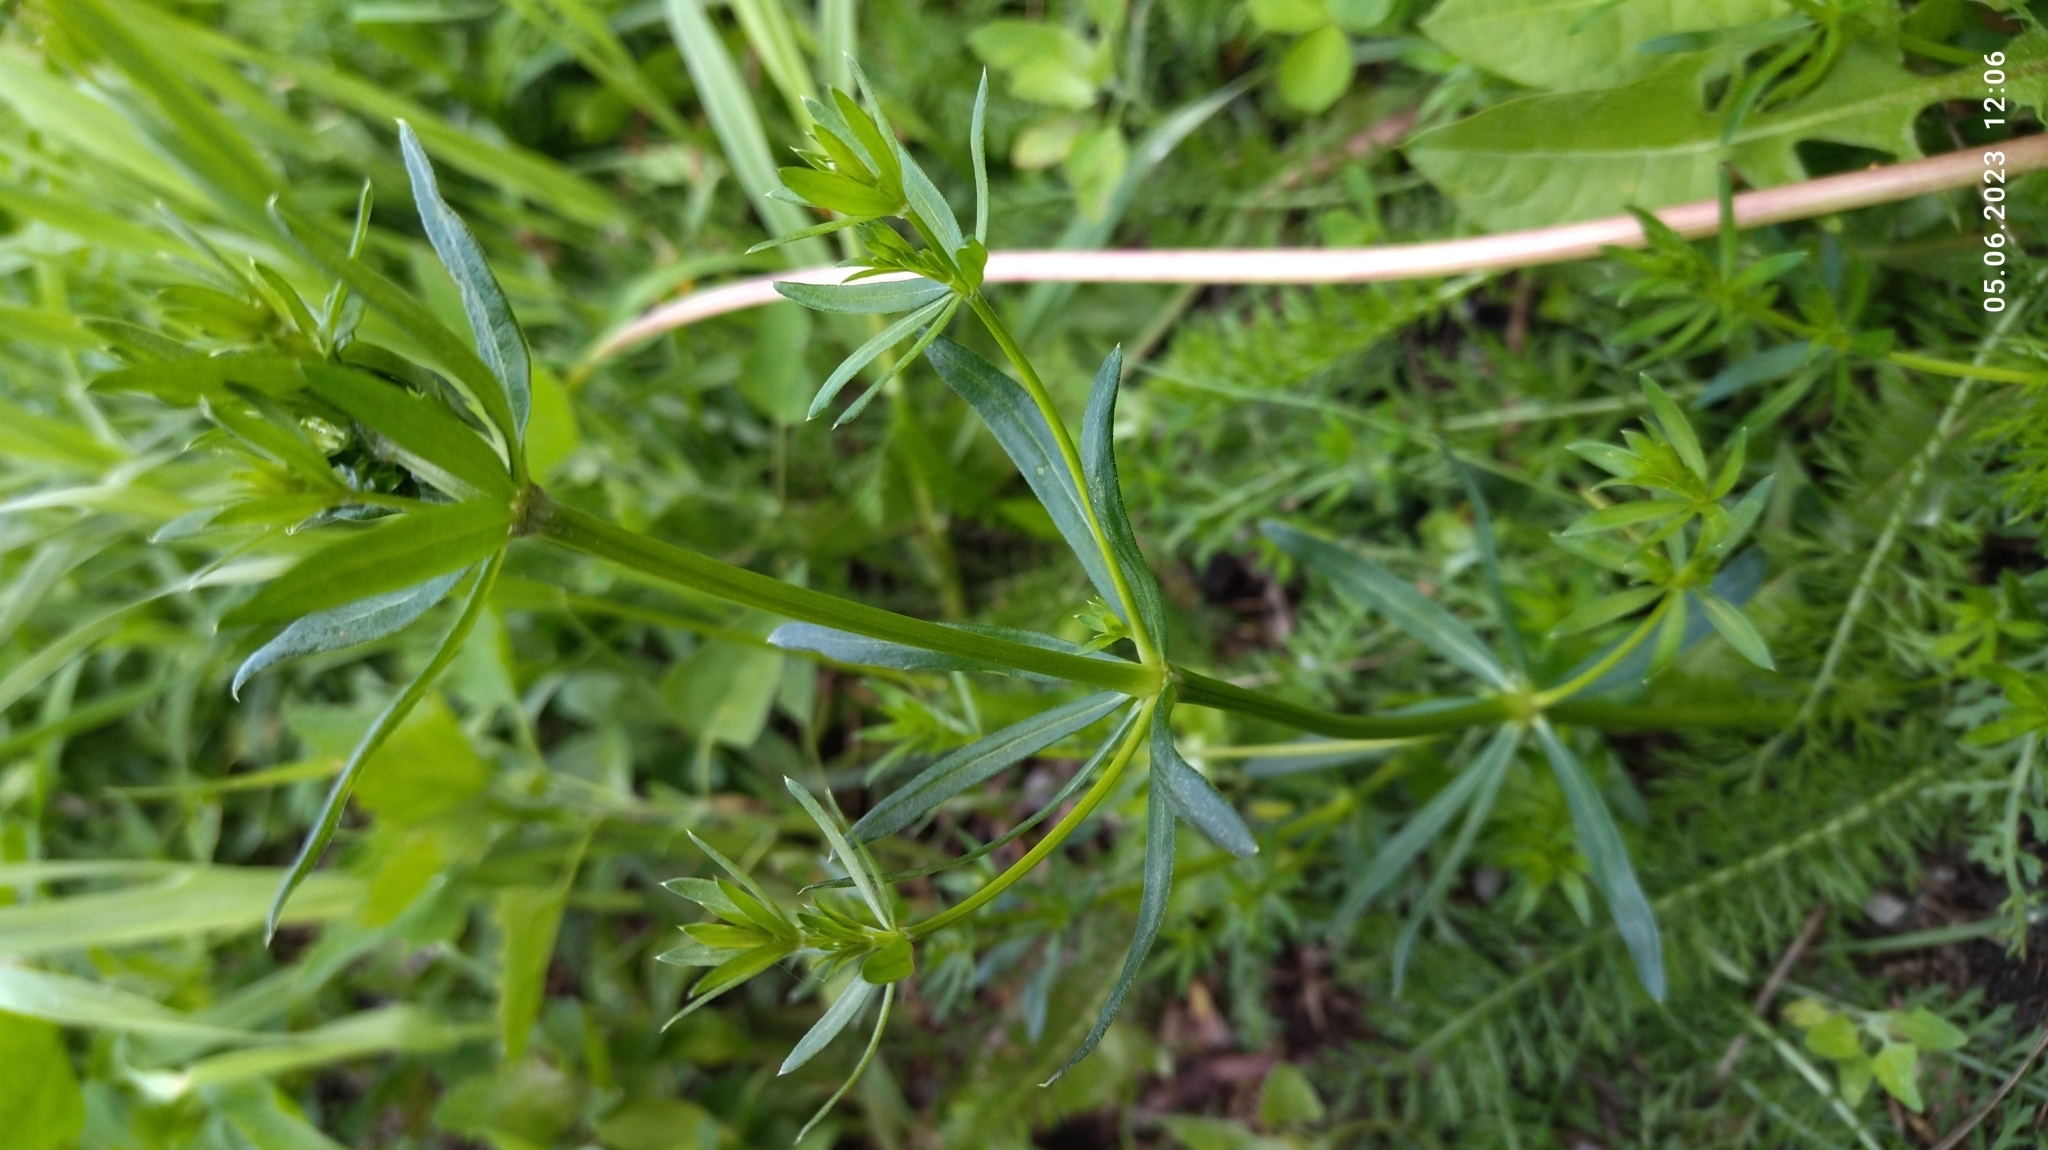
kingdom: Plantae
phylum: Tracheophyta
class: Magnoliopsida
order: Gentianales
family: Rubiaceae
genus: Galium
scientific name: Galium mollugo
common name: Hedge bedstraw
